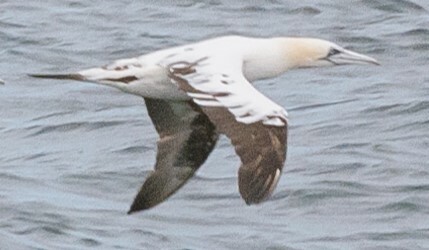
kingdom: Animalia
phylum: Chordata
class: Aves
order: Suliformes
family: Sulidae
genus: Morus
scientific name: Morus bassanus
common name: Northern gannet
